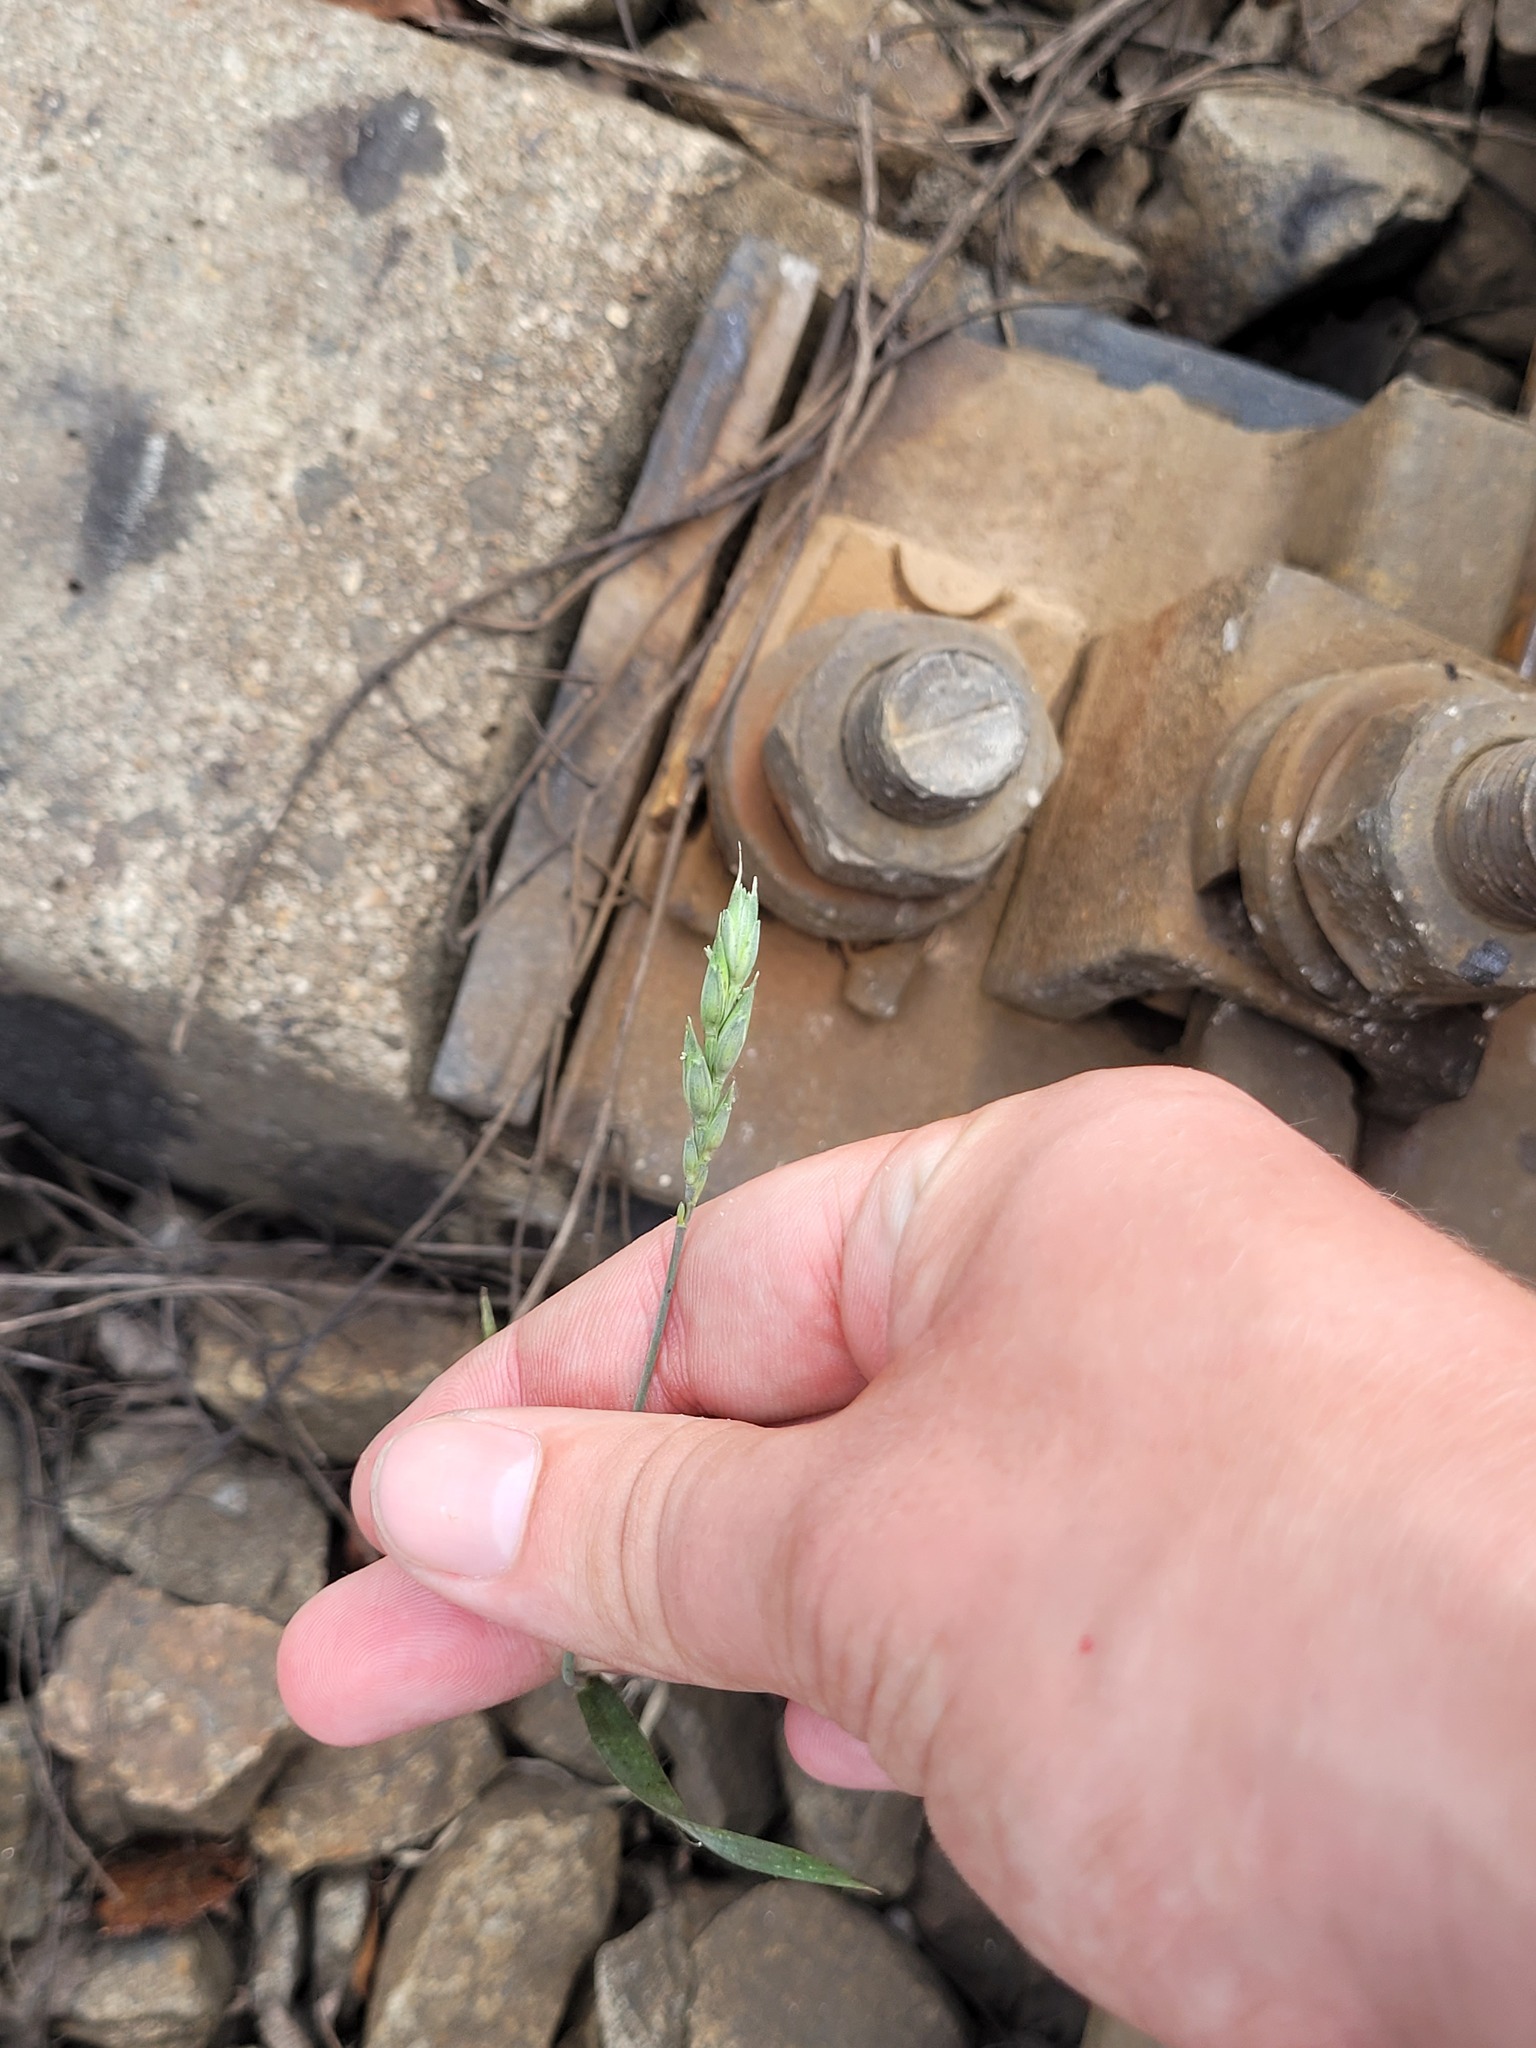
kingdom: Plantae
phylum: Tracheophyta
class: Liliopsida
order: Poales
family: Poaceae
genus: Triticum
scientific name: Triticum aestivum
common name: Common wheat
